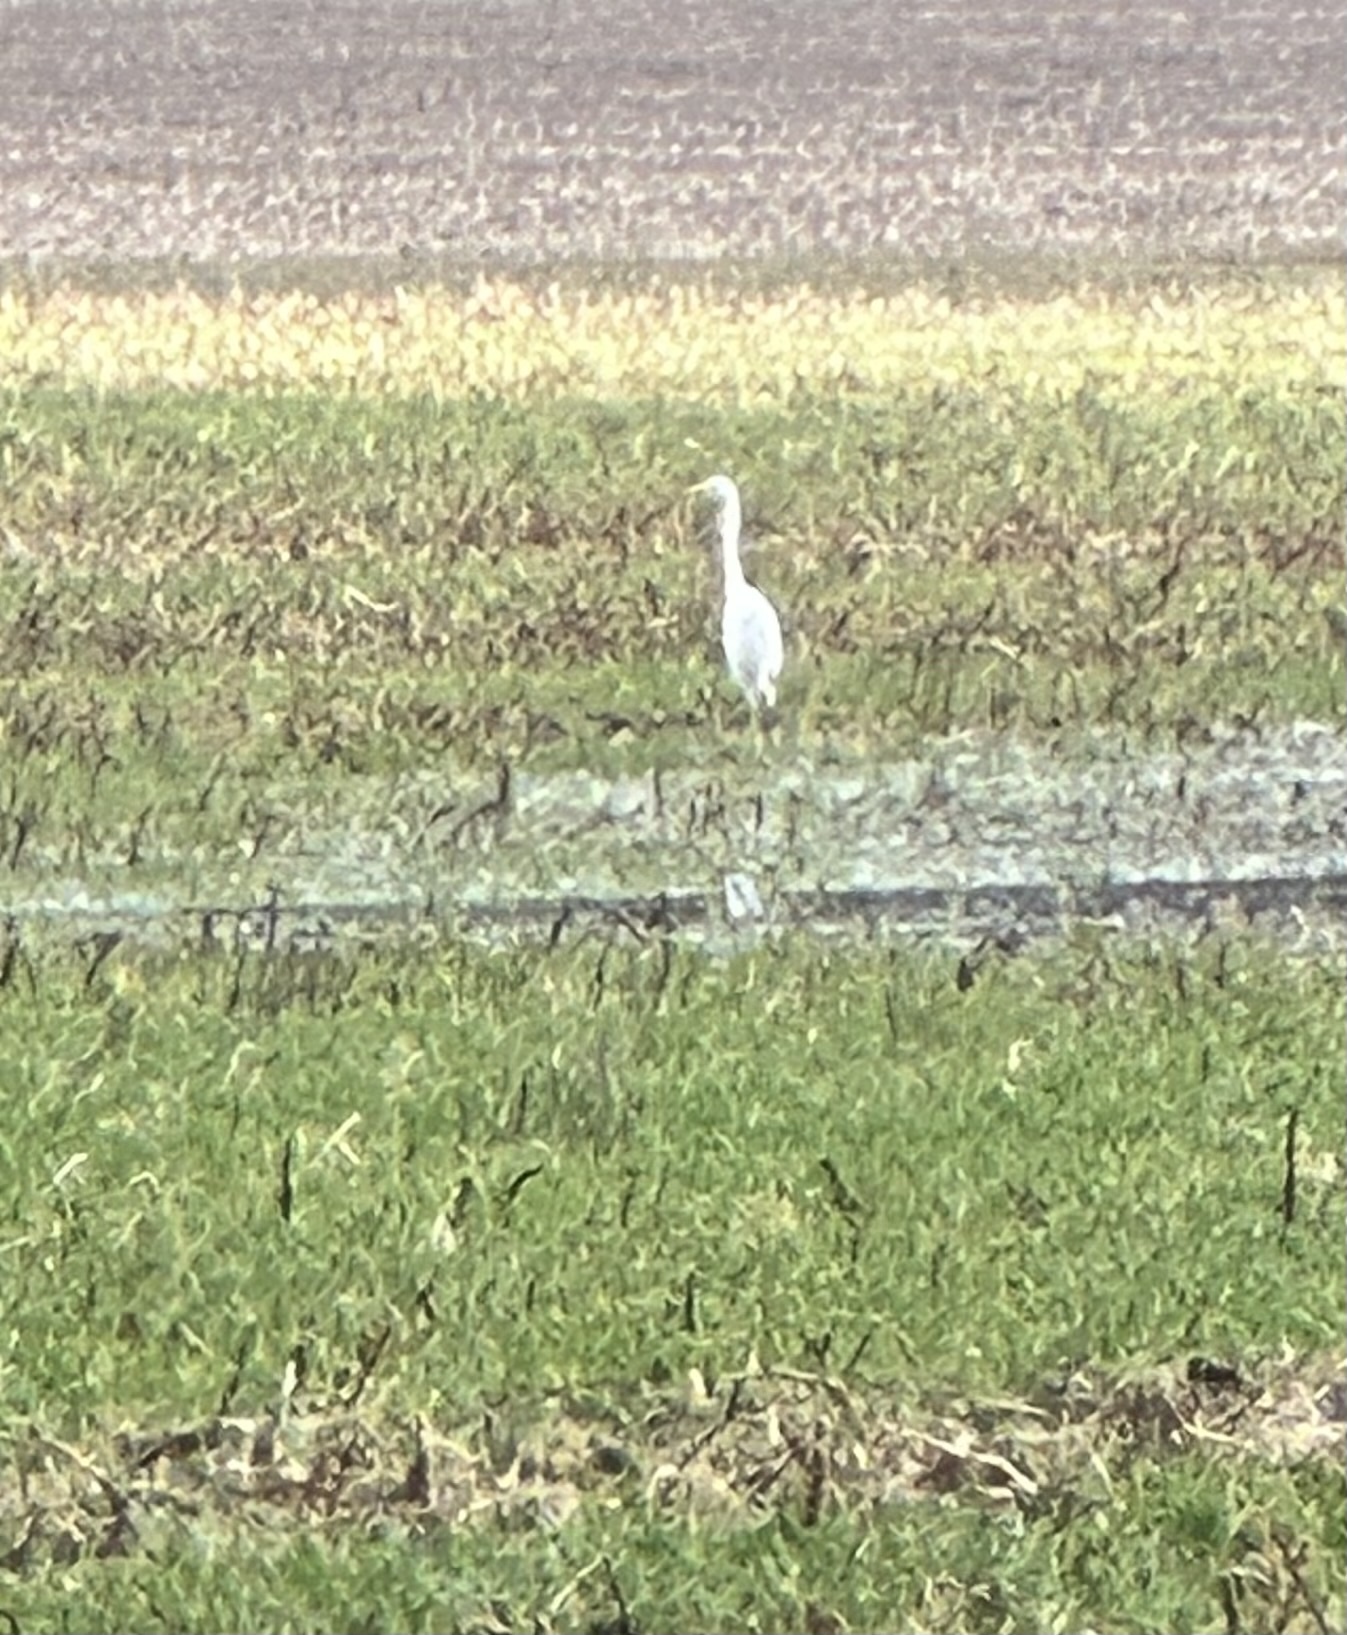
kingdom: Animalia
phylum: Chordata
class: Aves
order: Pelecaniformes
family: Ardeidae
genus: Ardea
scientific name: Ardea alba
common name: Great egret
